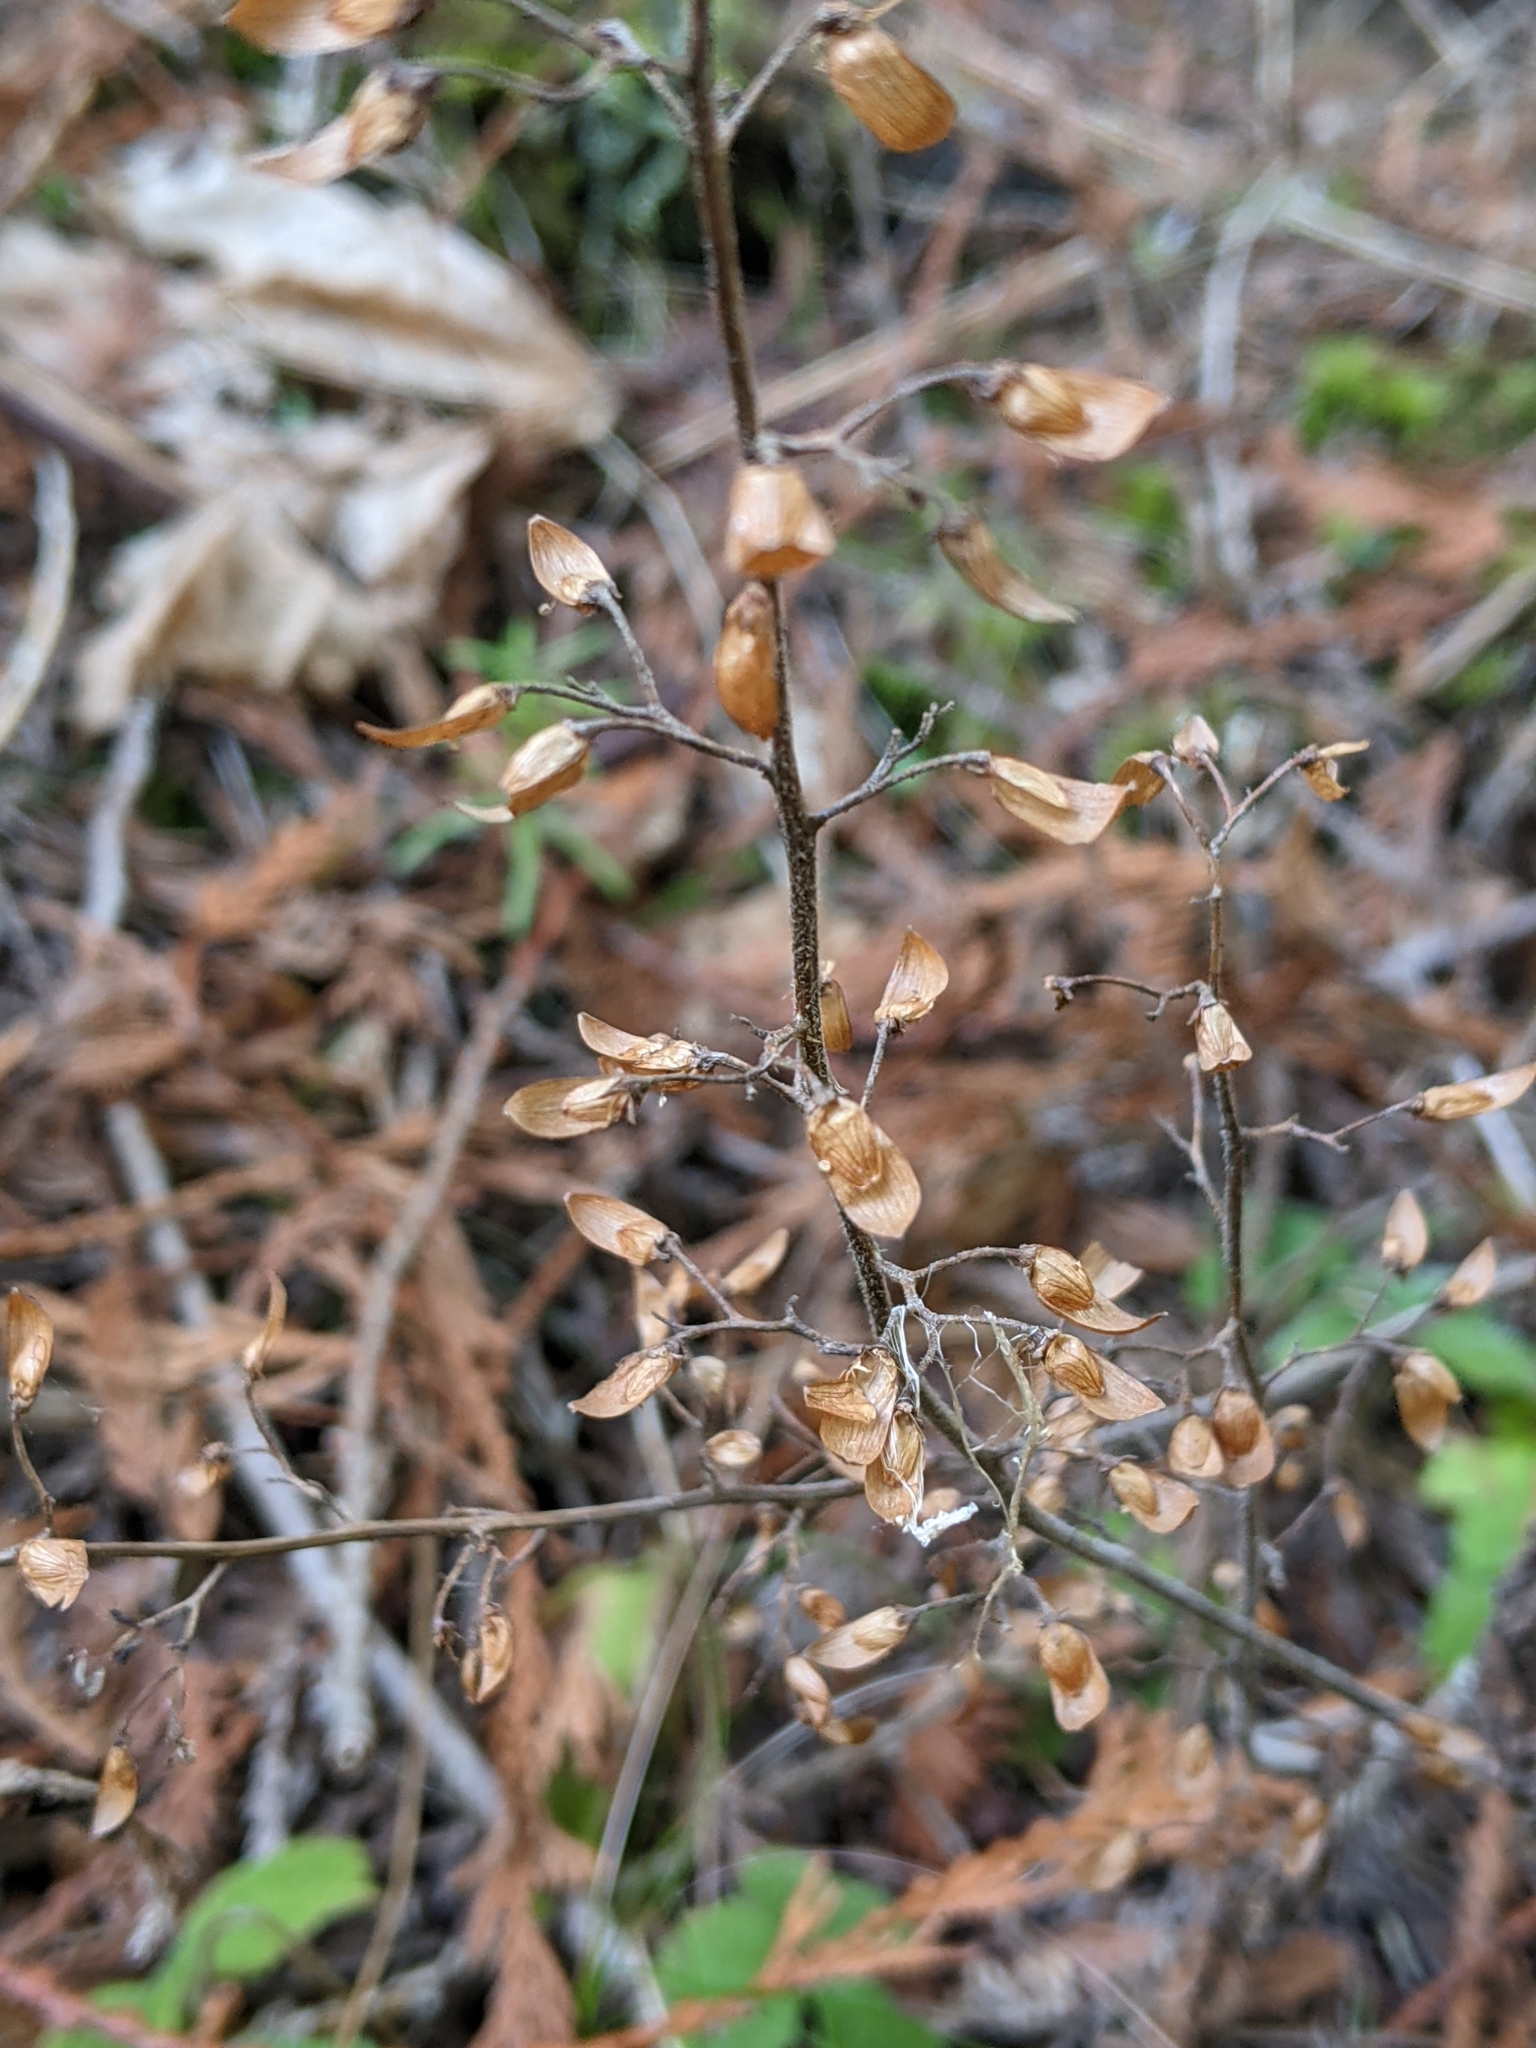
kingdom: Plantae
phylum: Tracheophyta
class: Magnoliopsida
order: Saxifragales
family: Saxifragaceae
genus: Tiarella
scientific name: Tiarella trifoliata
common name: Sugar-scoop
